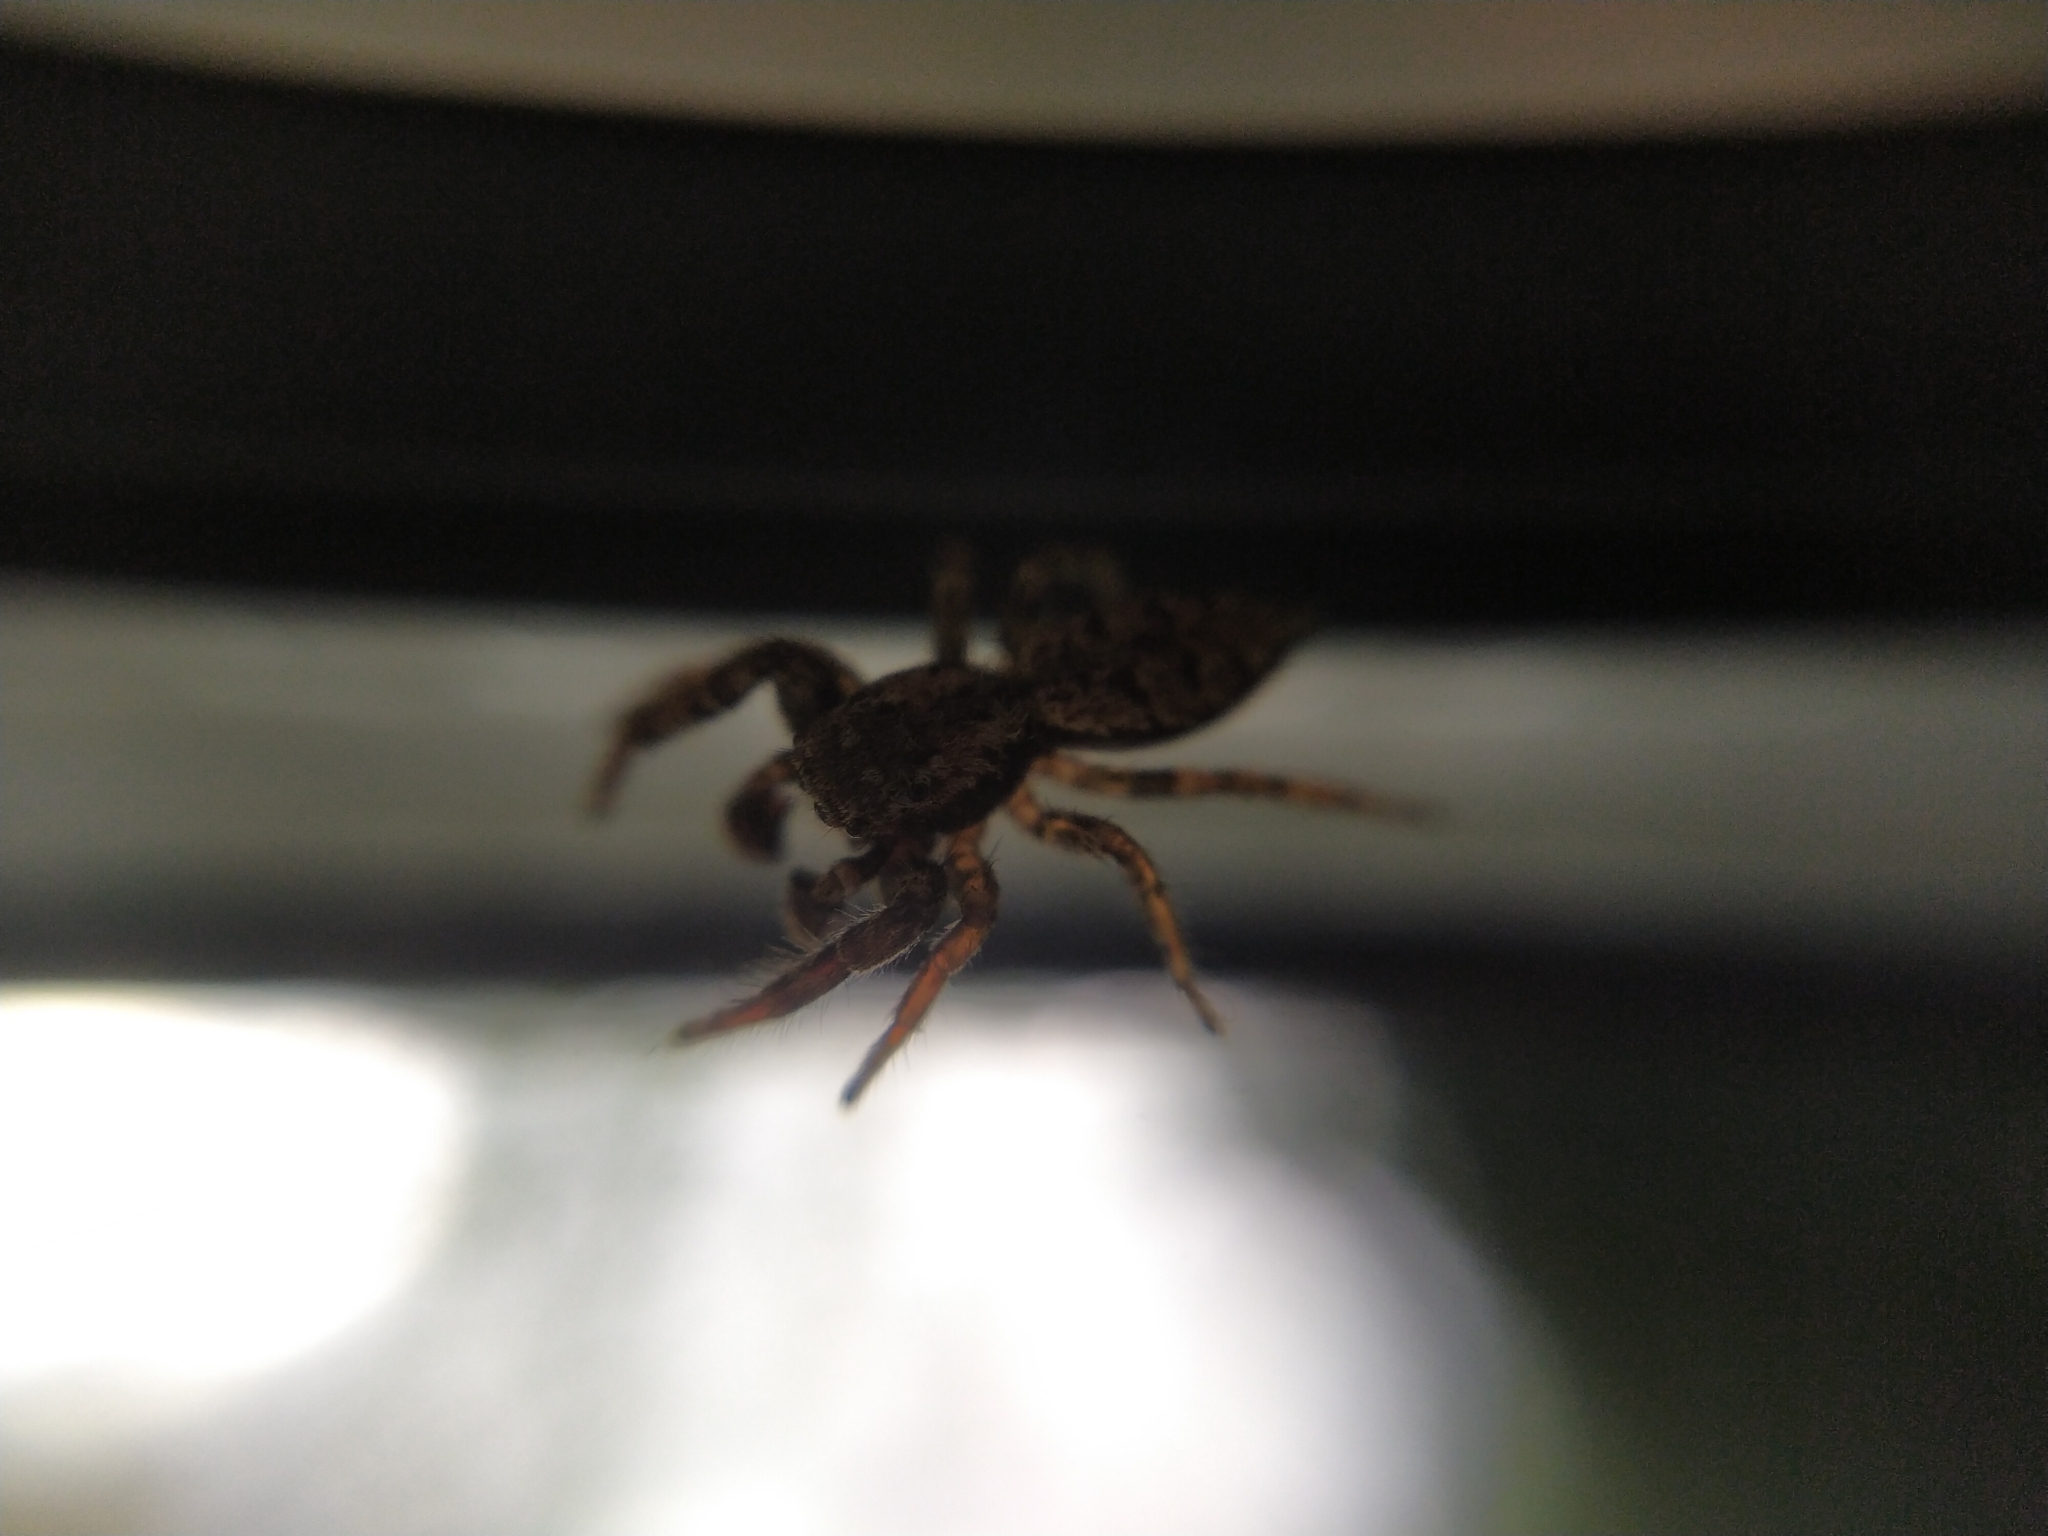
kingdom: Animalia
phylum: Arthropoda
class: Arachnida
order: Araneae
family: Salticidae
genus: Marpissa
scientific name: Marpissa muscosa
